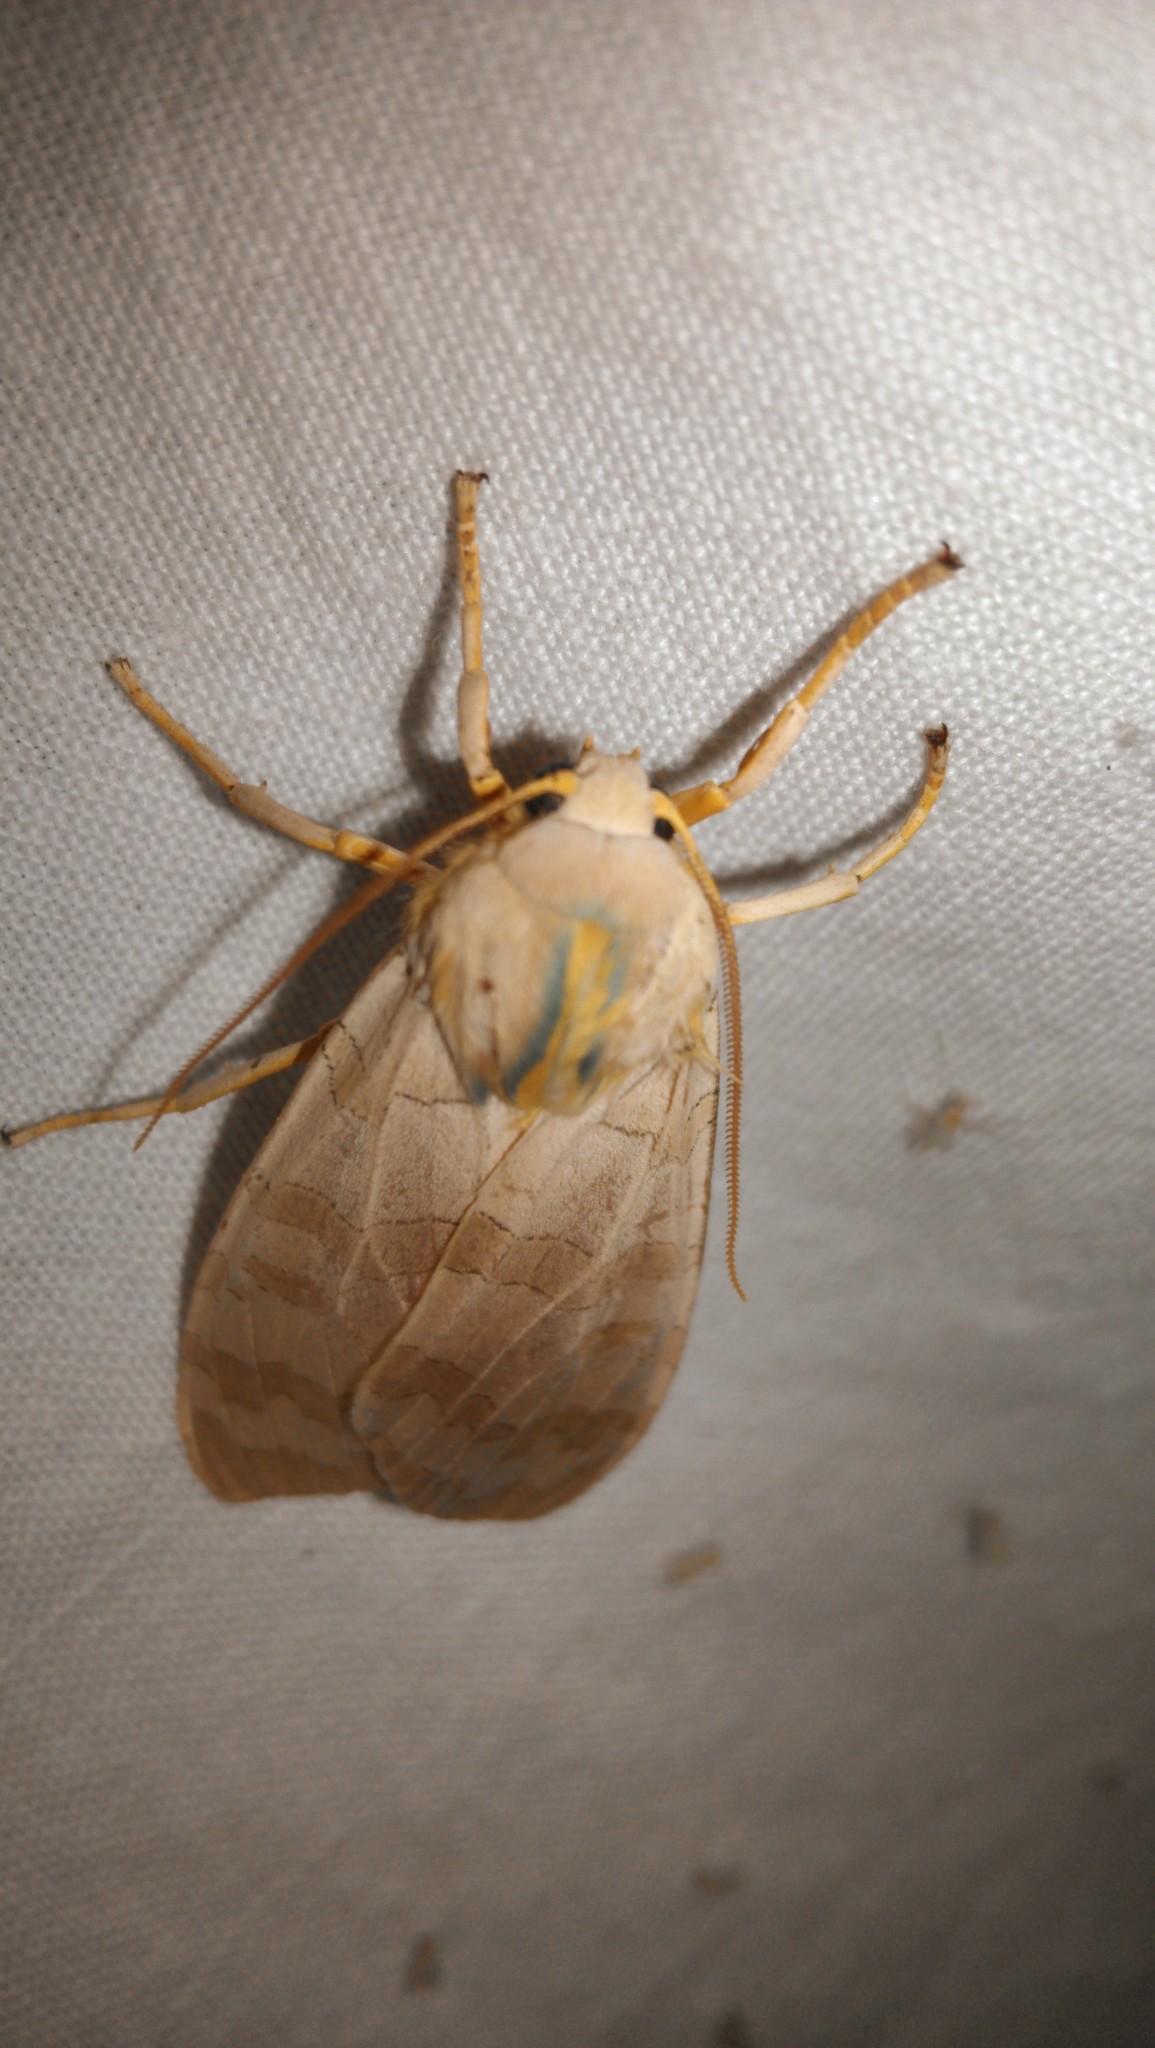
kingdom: Animalia
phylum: Arthropoda
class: Insecta
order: Lepidoptera
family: Erebidae
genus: Halysidota
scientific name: Halysidota
